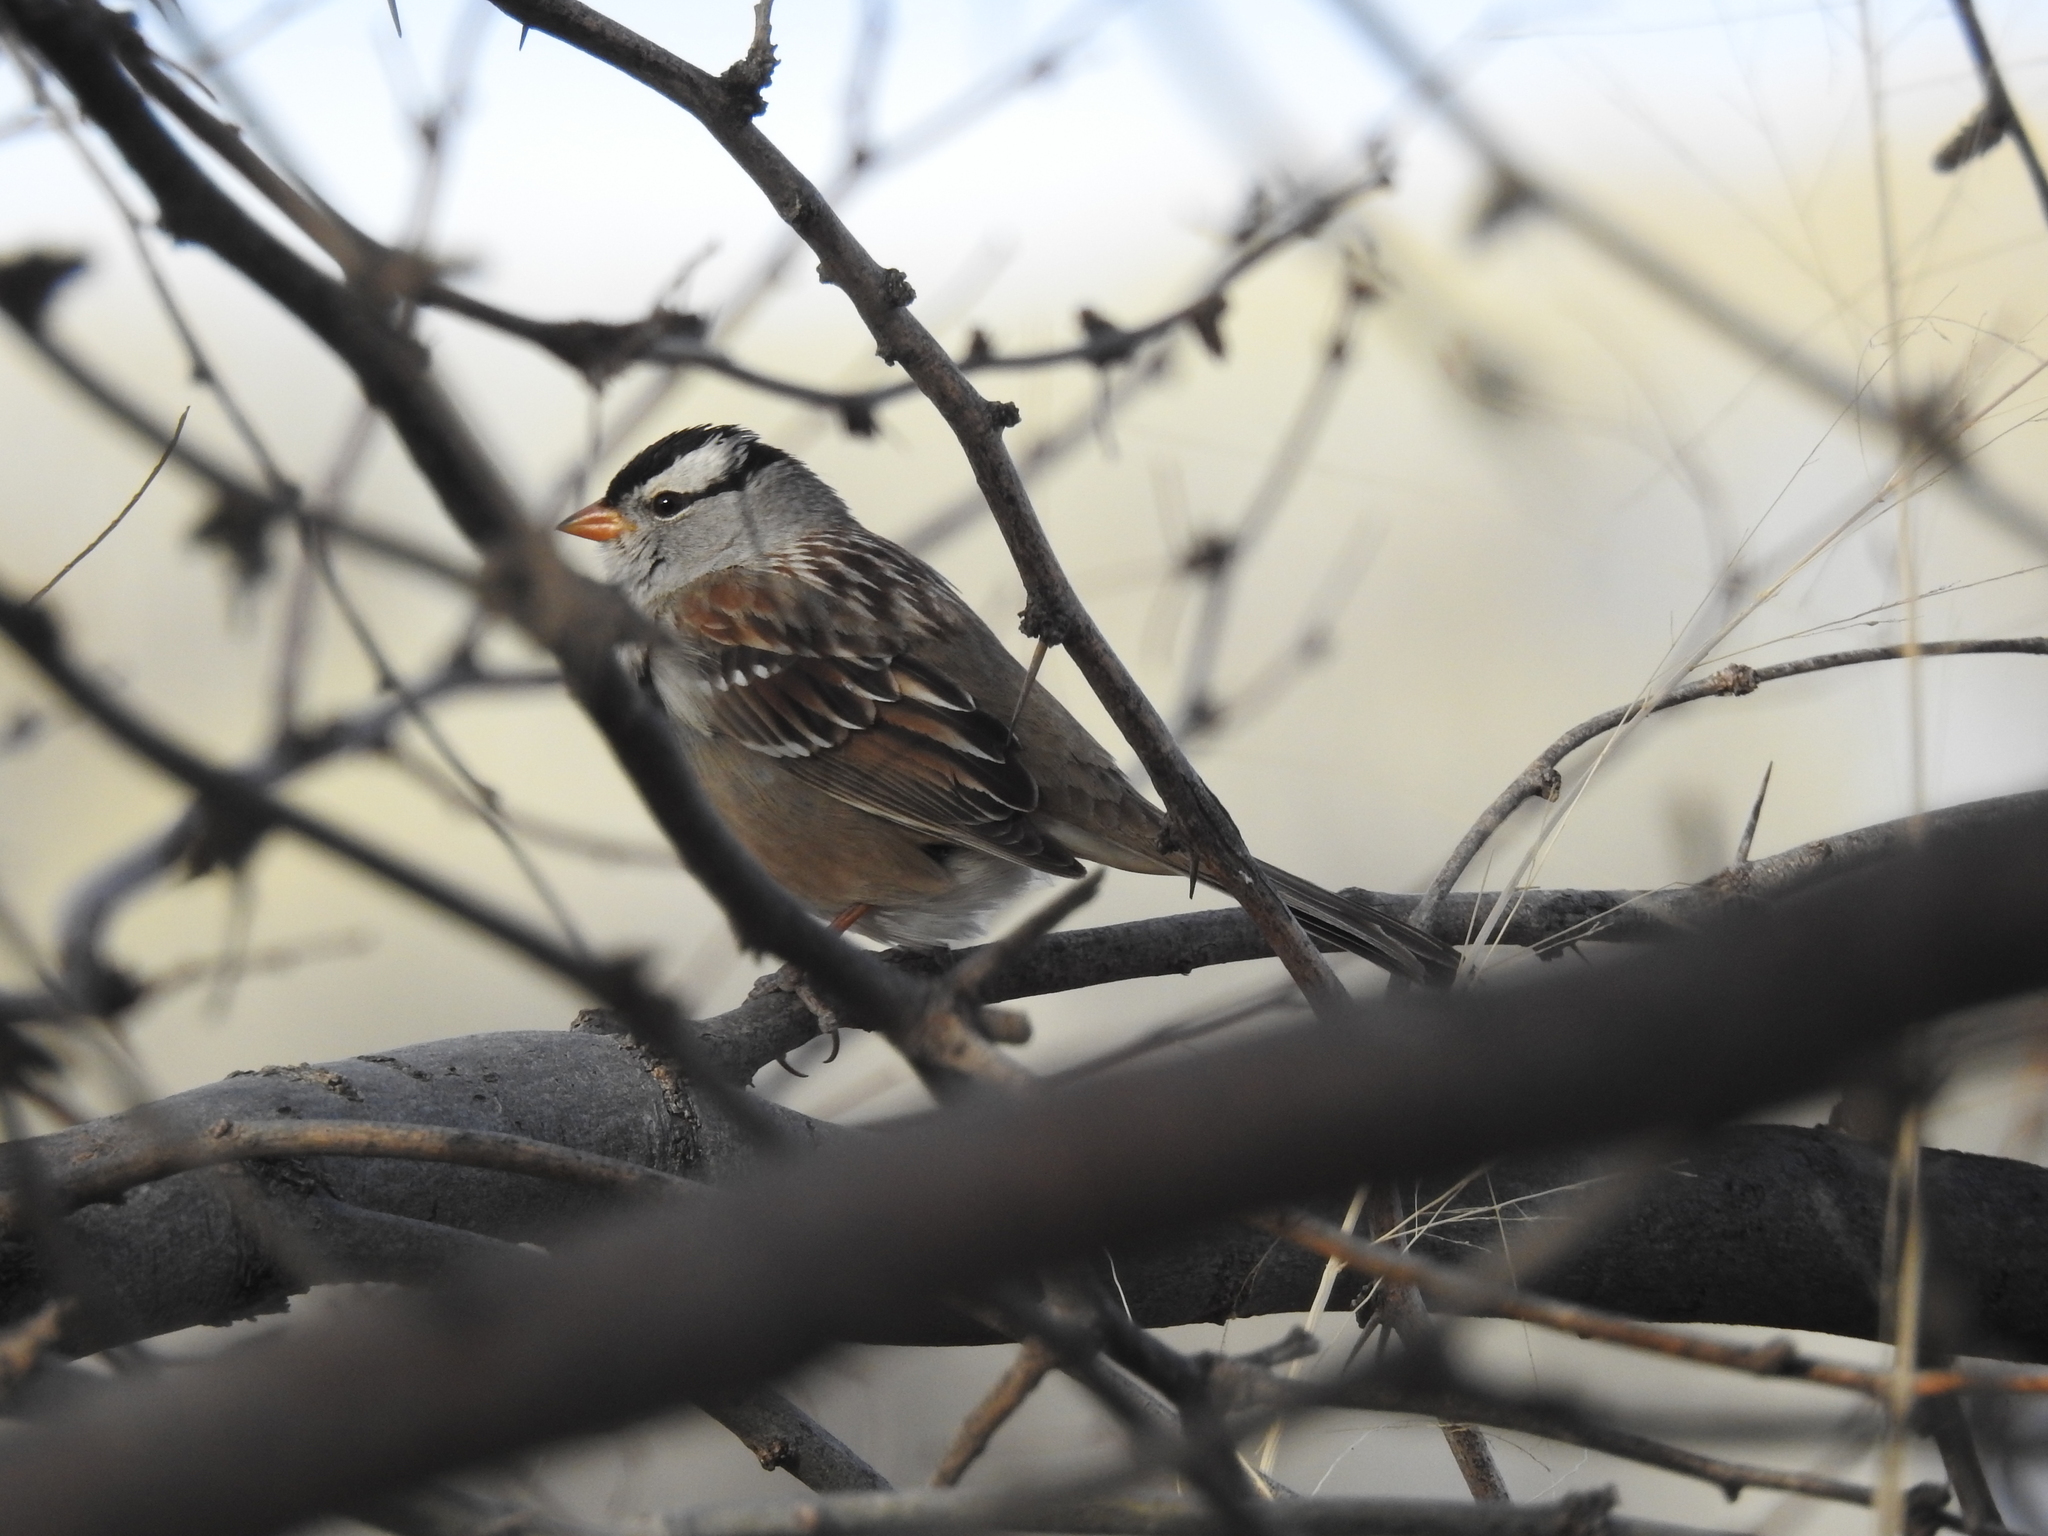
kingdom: Animalia
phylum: Chordata
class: Aves
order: Passeriformes
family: Passerellidae
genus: Zonotrichia
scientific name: Zonotrichia leucophrys
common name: White-crowned sparrow
